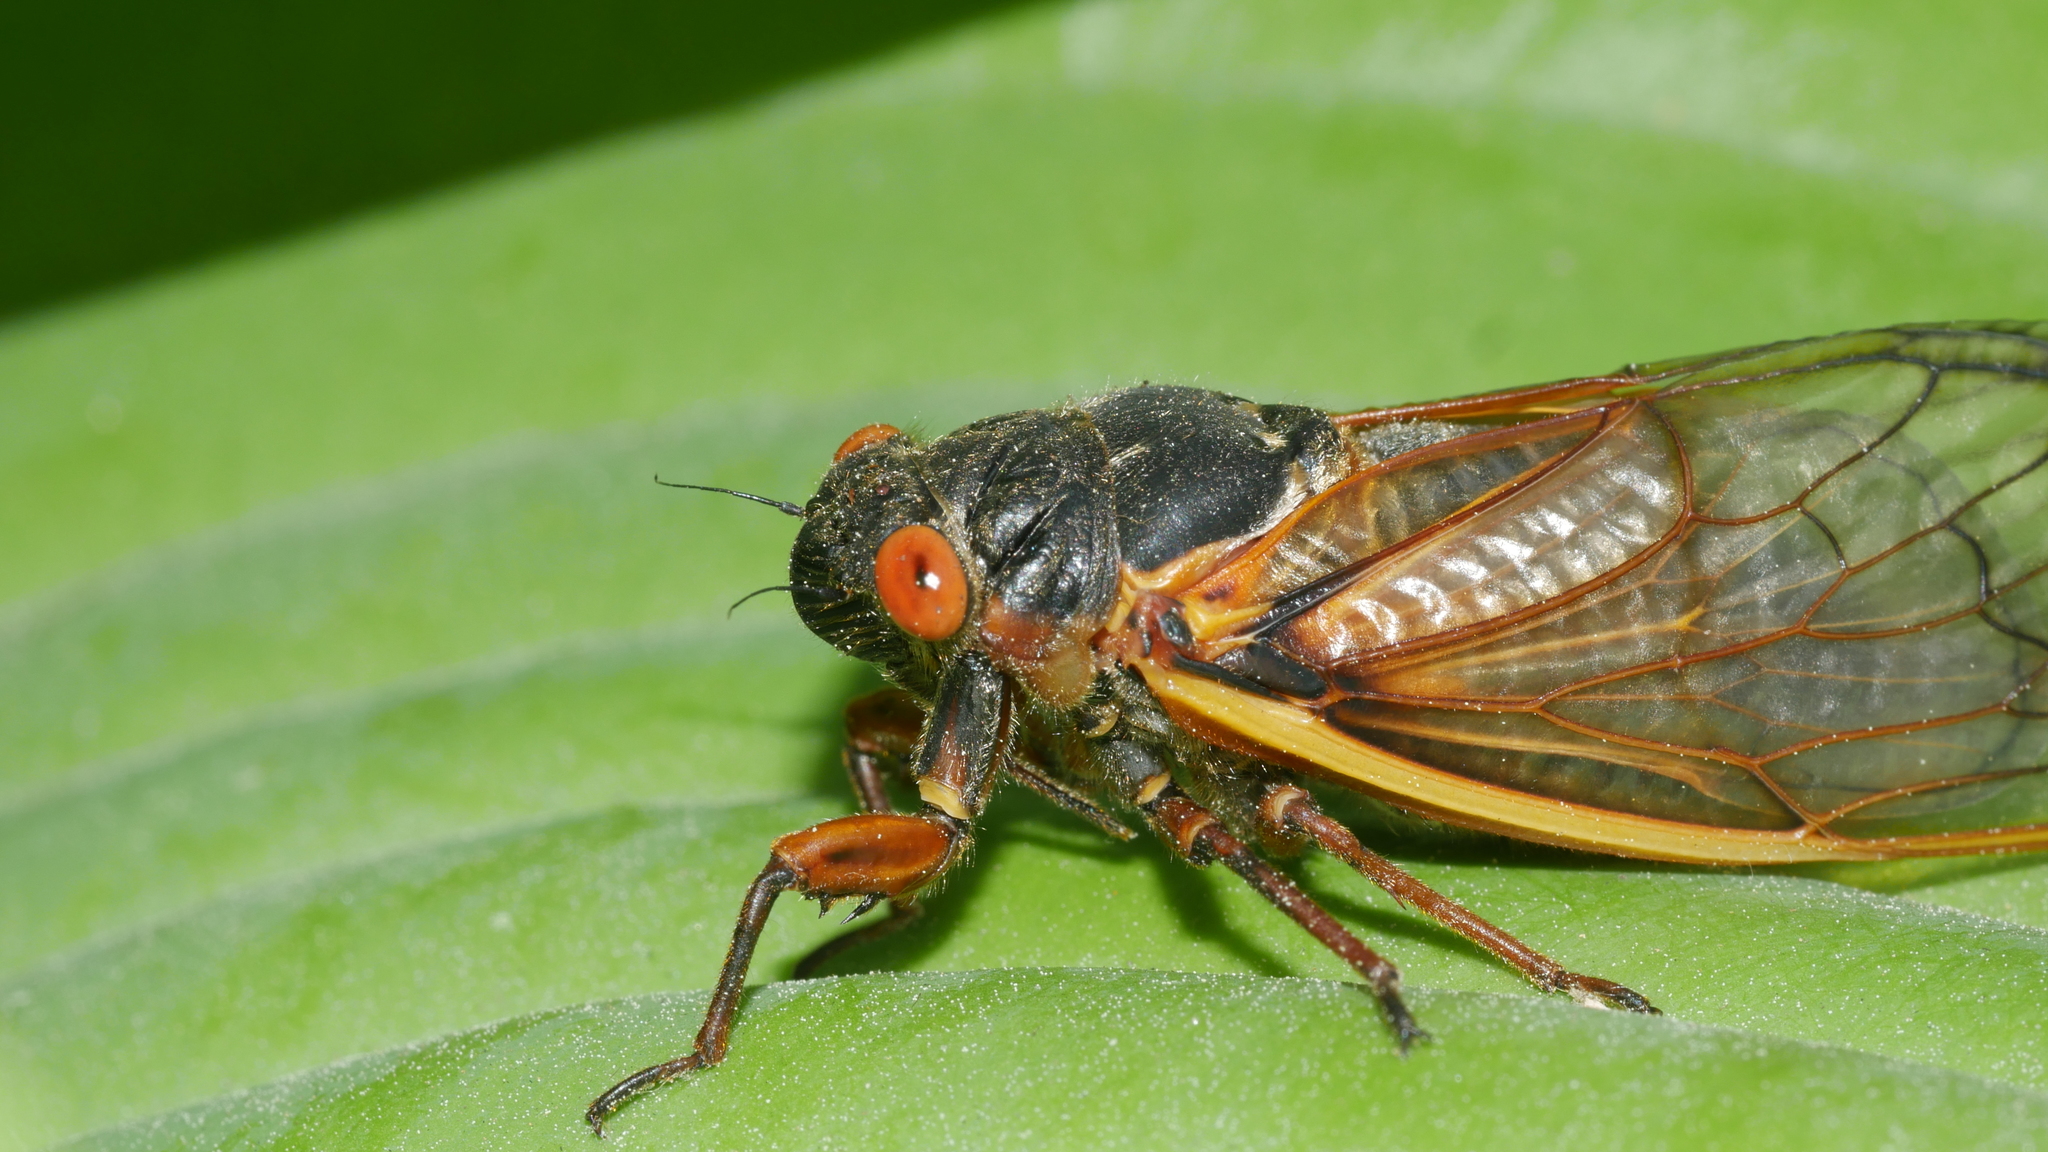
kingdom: Animalia
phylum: Arthropoda
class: Insecta
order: Hemiptera
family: Cicadidae
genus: Magicicada
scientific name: Magicicada septendecim
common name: Periodical cicada
